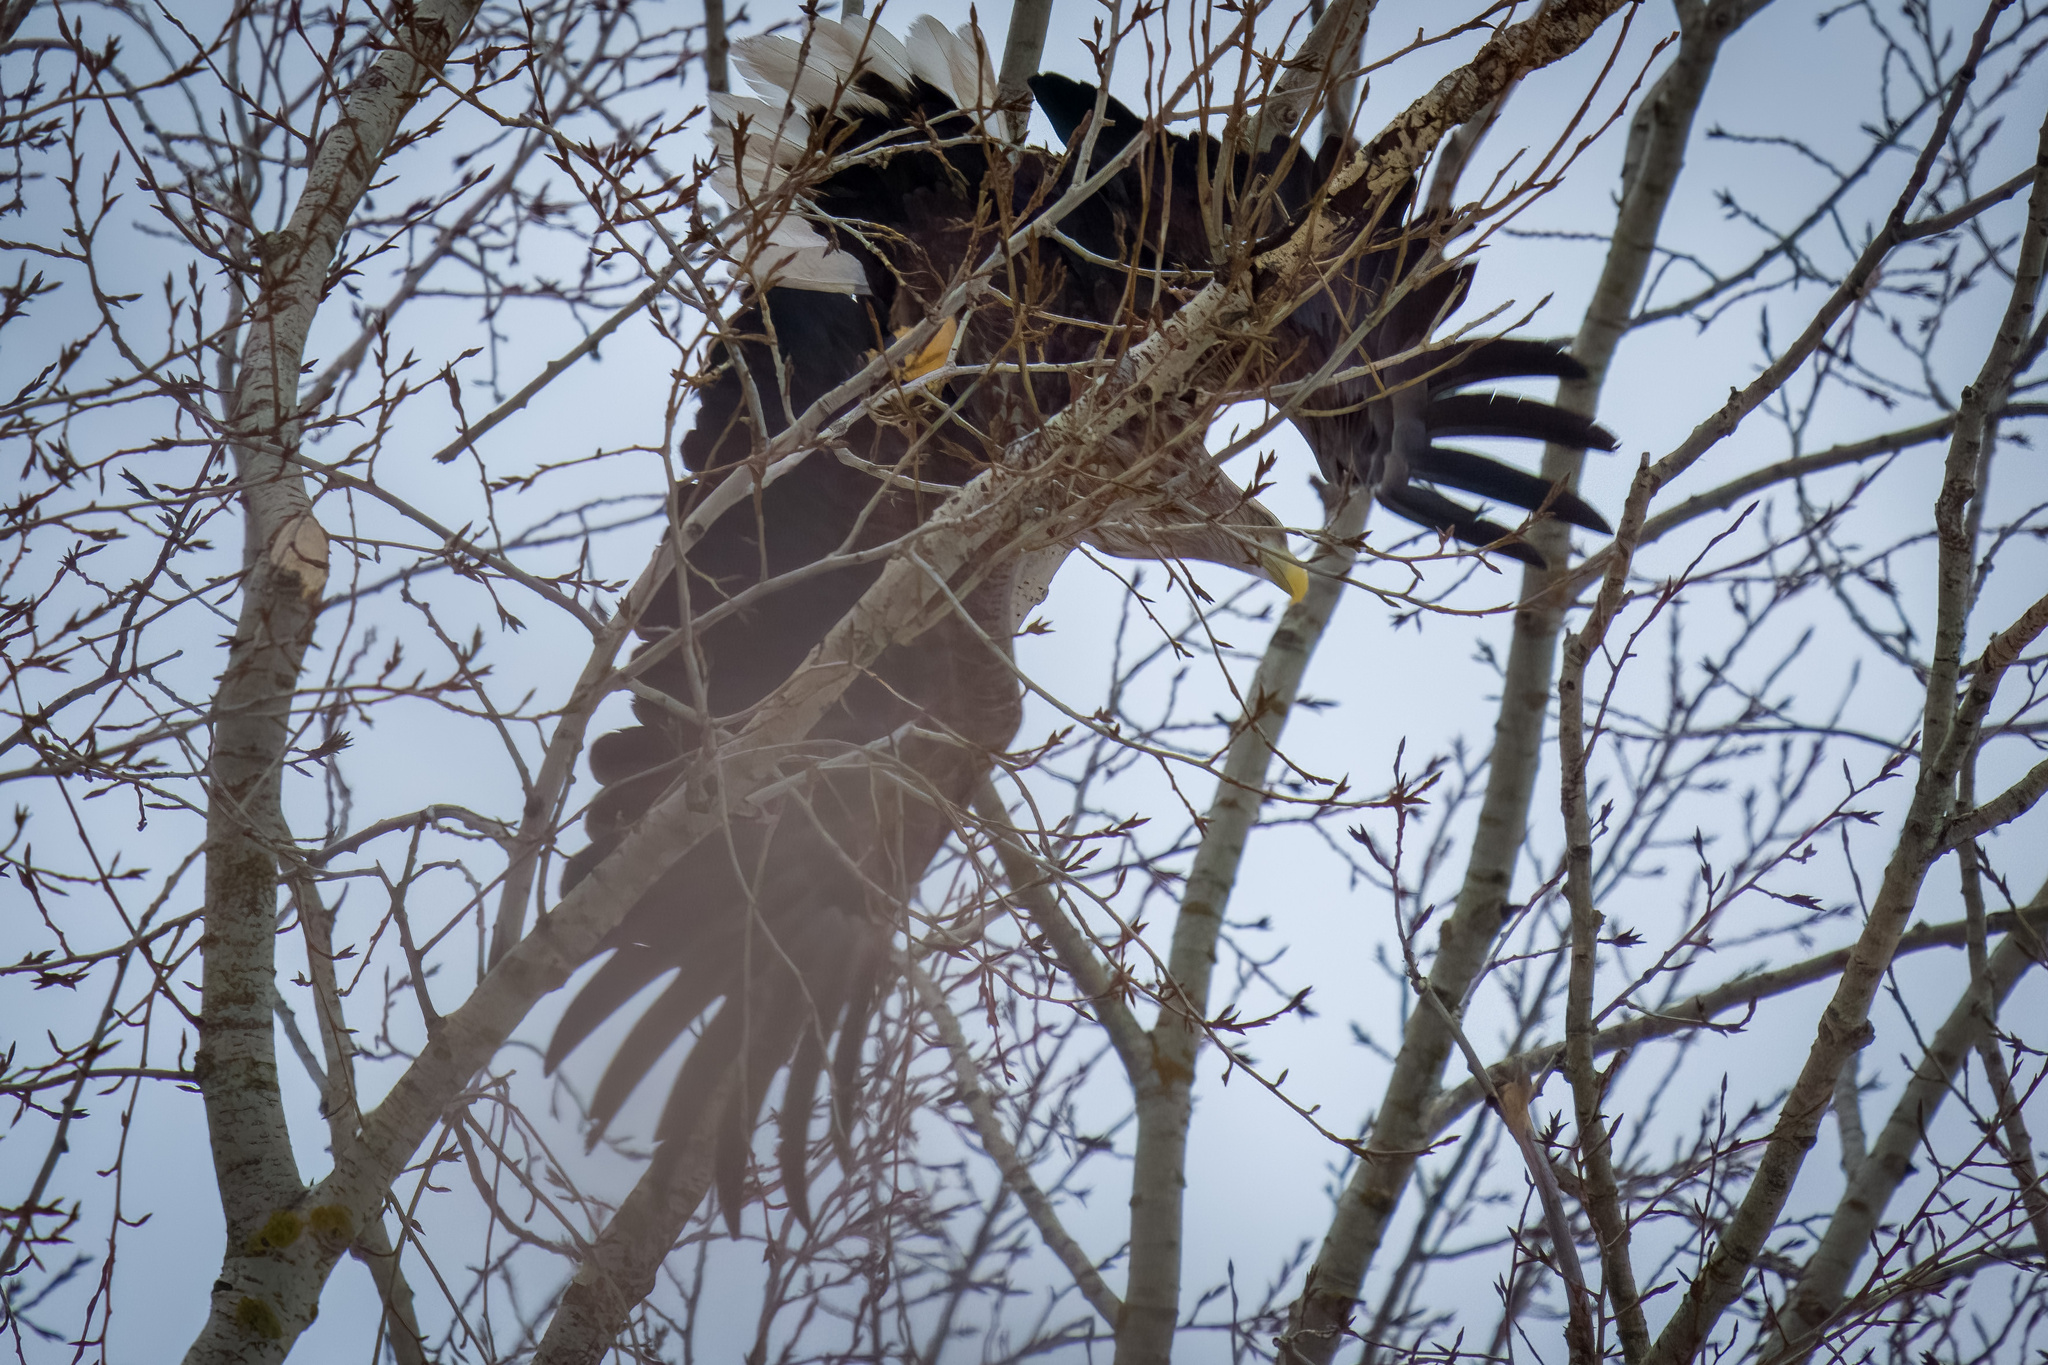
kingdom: Animalia
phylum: Chordata
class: Aves
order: Accipitriformes
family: Accipitridae
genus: Haliaeetus
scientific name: Haliaeetus albicilla
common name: White-tailed eagle
